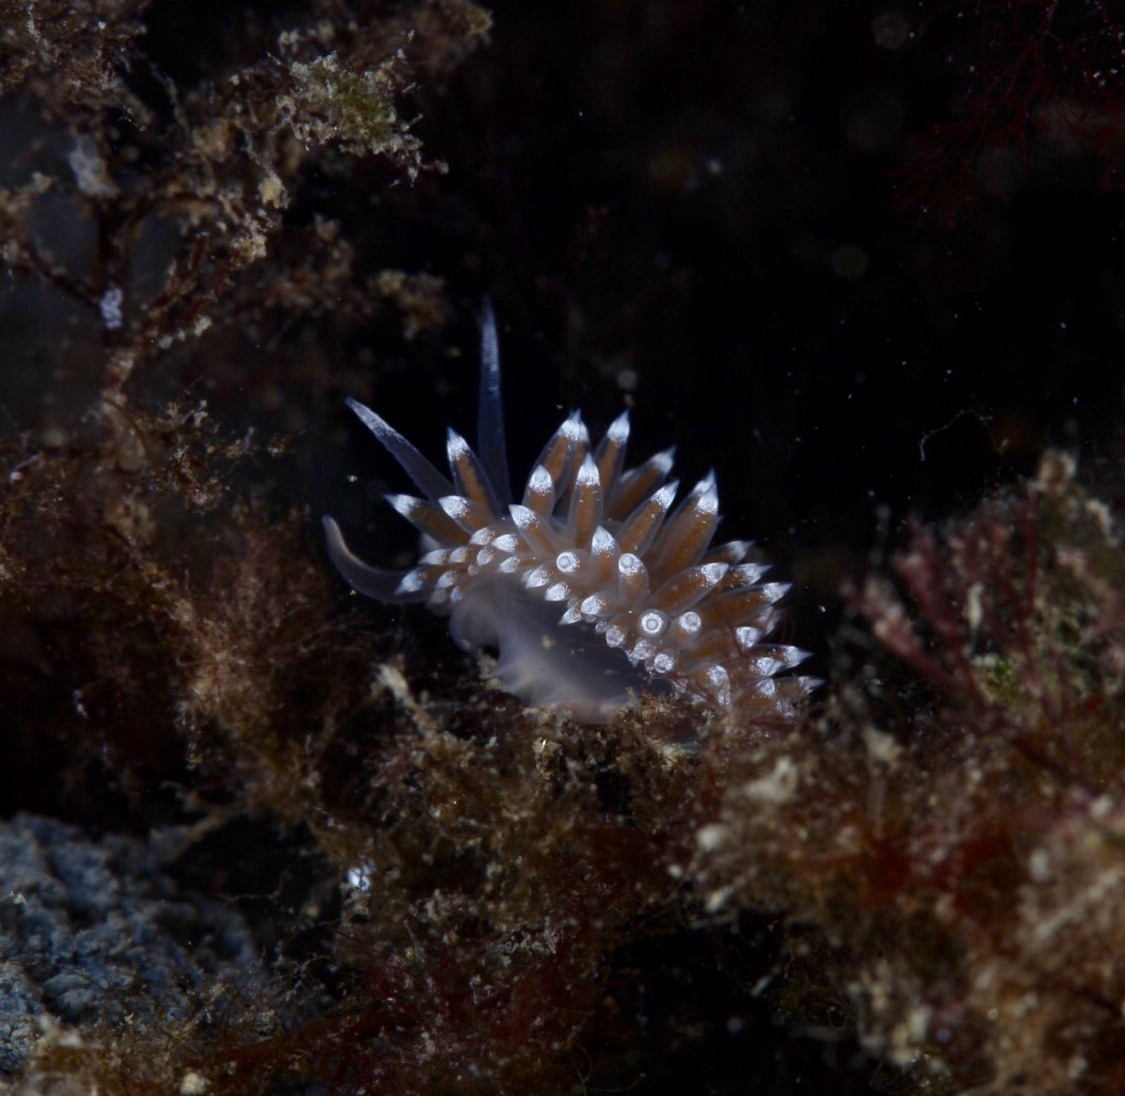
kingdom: Animalia
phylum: Mollusca
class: Gastropoda
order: Nudibranchia
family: Coryphellidae
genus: Coryphella
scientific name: Coryphella verrucosa
